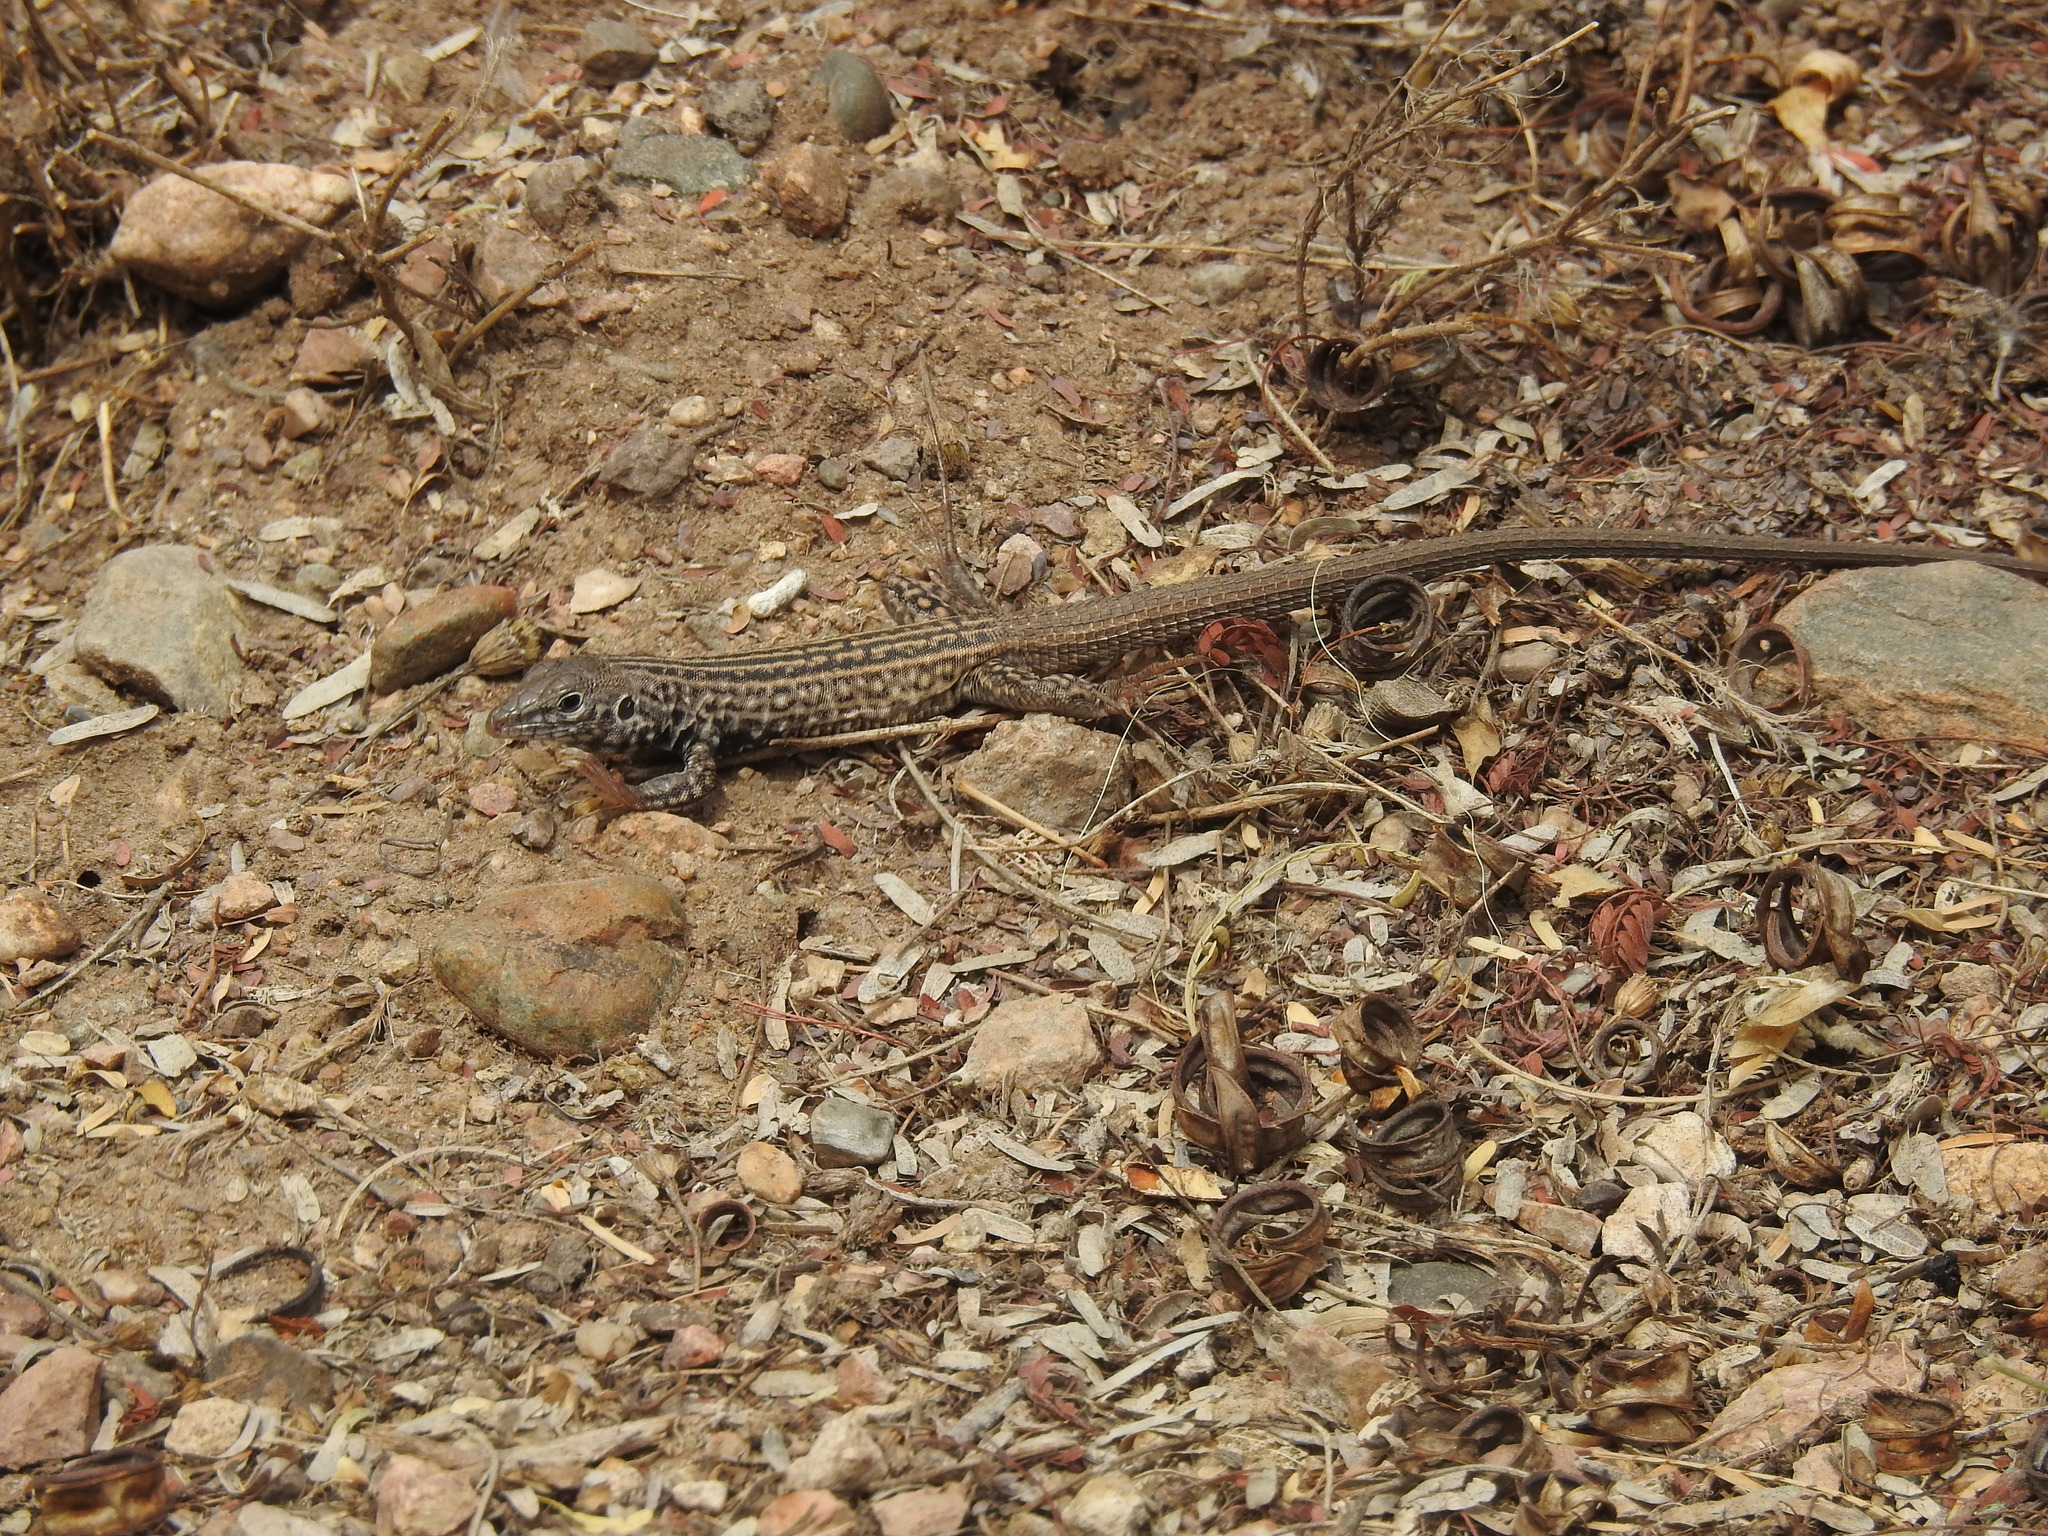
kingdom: Animalia
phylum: Chordata
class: Squamata
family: Teiidae
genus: Aspidoscelis
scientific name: Aspidoscelis tigris
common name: Tiger whiptail
